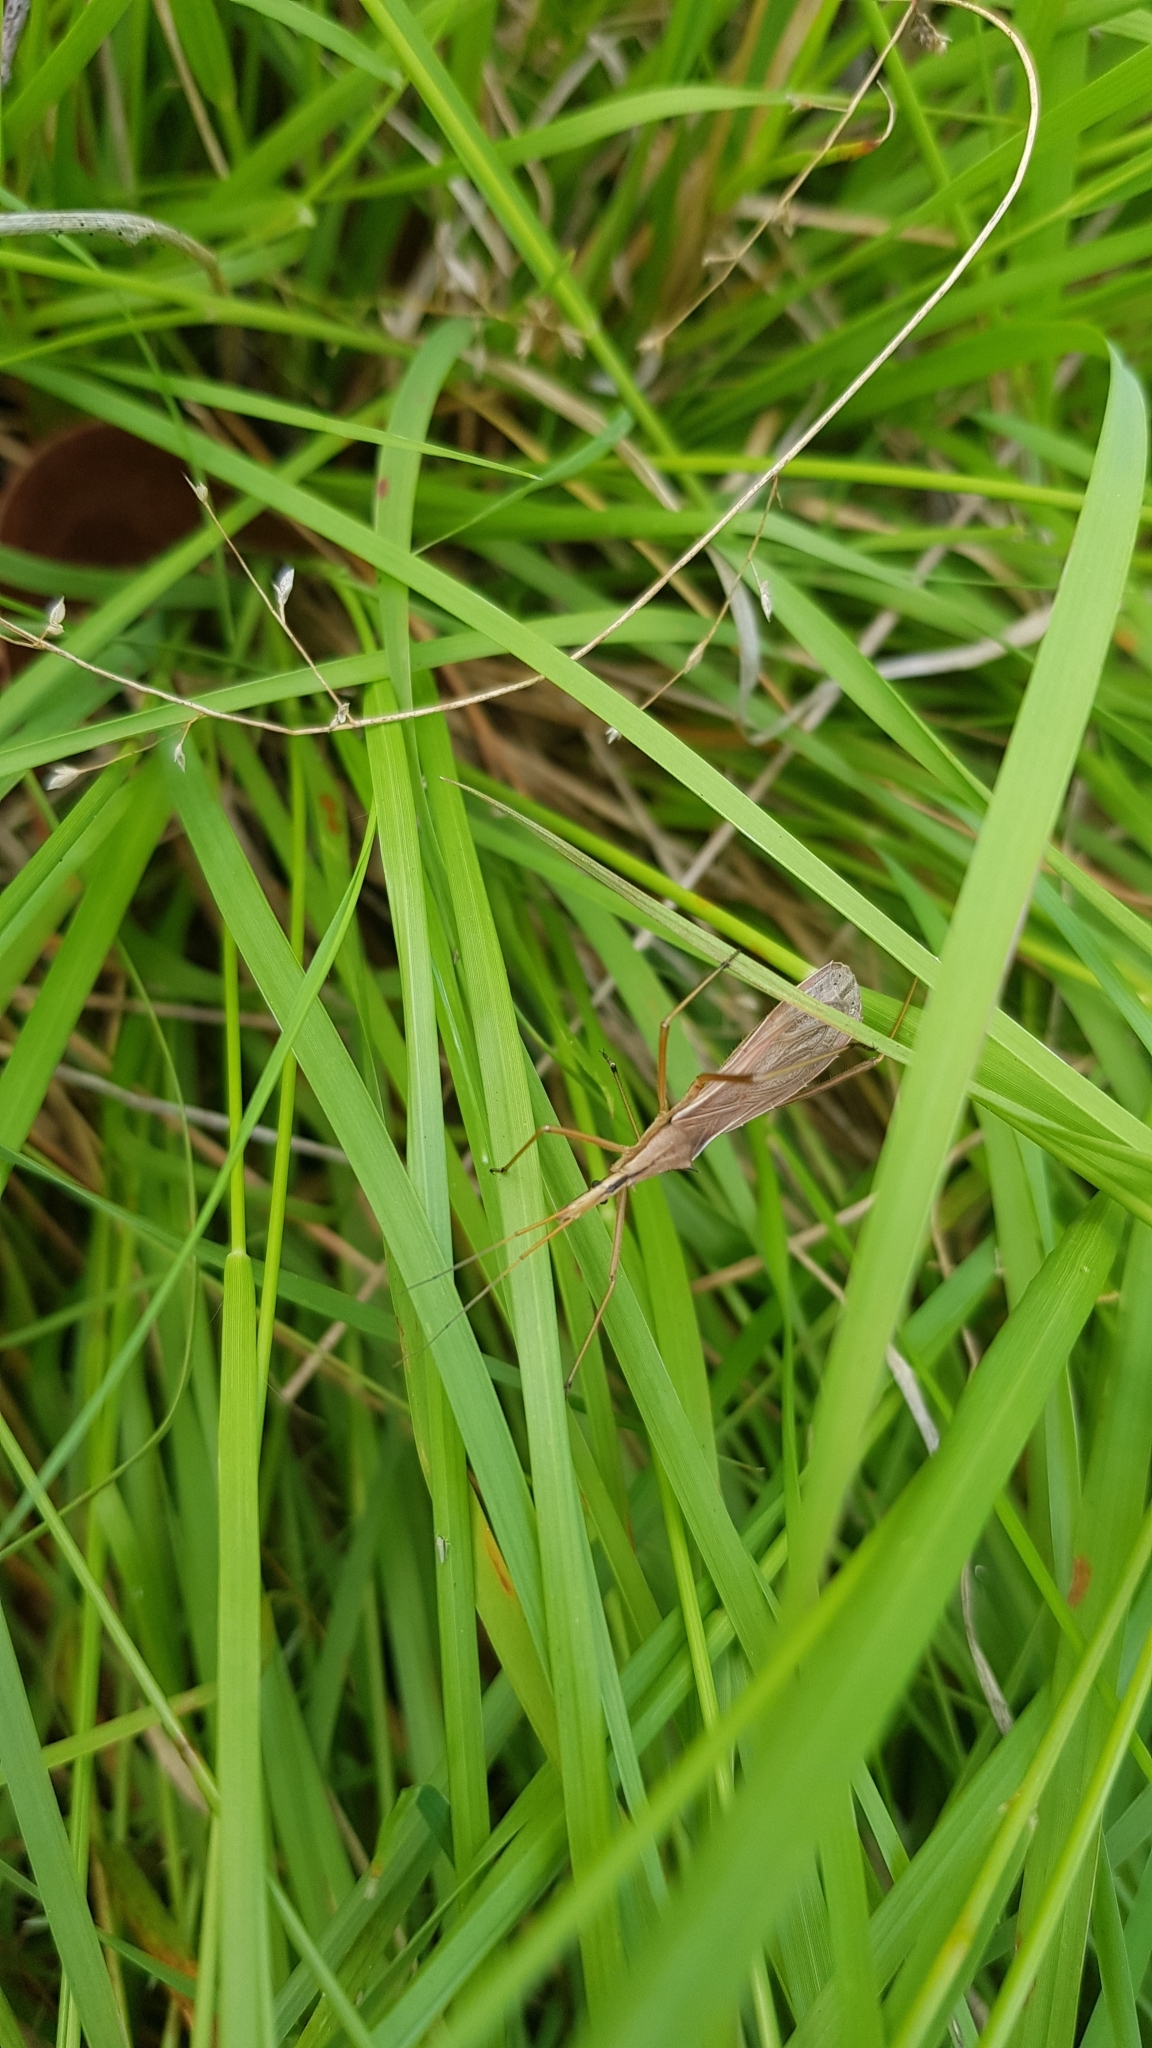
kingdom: Animalia
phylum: Arthropoda
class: Insecta
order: Hemiptera
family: Reduviidae
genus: Thodelmus
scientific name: Thodelmus impicticornis
